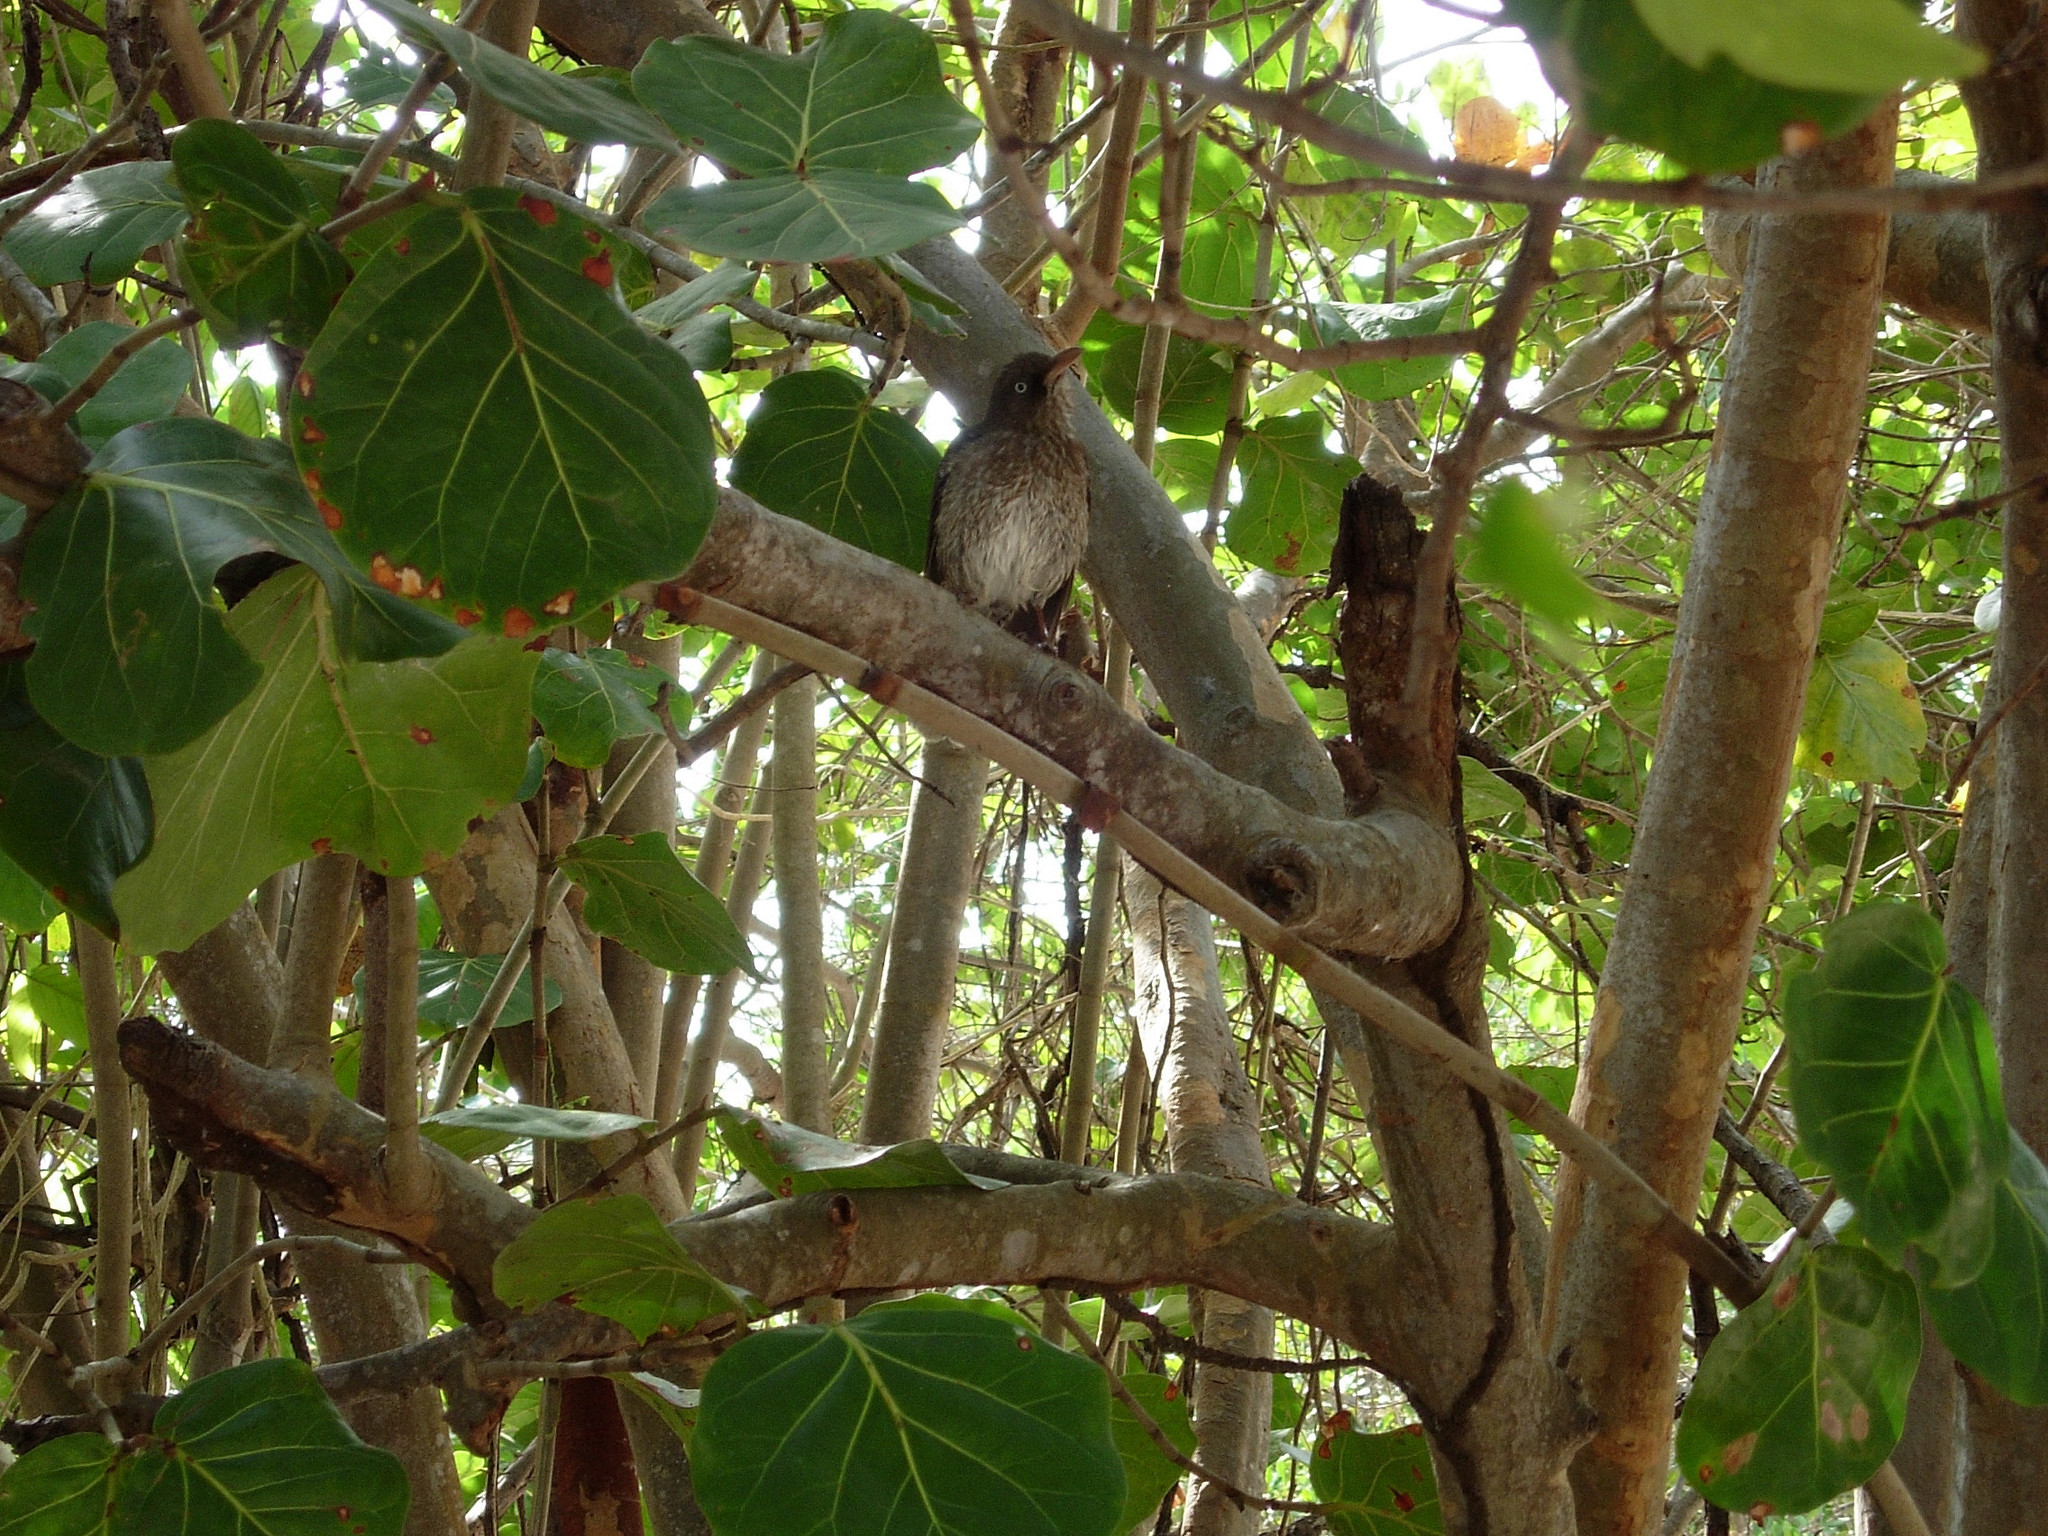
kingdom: Animalia
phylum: Chordata
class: Aves
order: Passeriformes
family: Mimidae
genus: Margarops
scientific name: Margarops fuscatus
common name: Pearly-eyed thrasher
